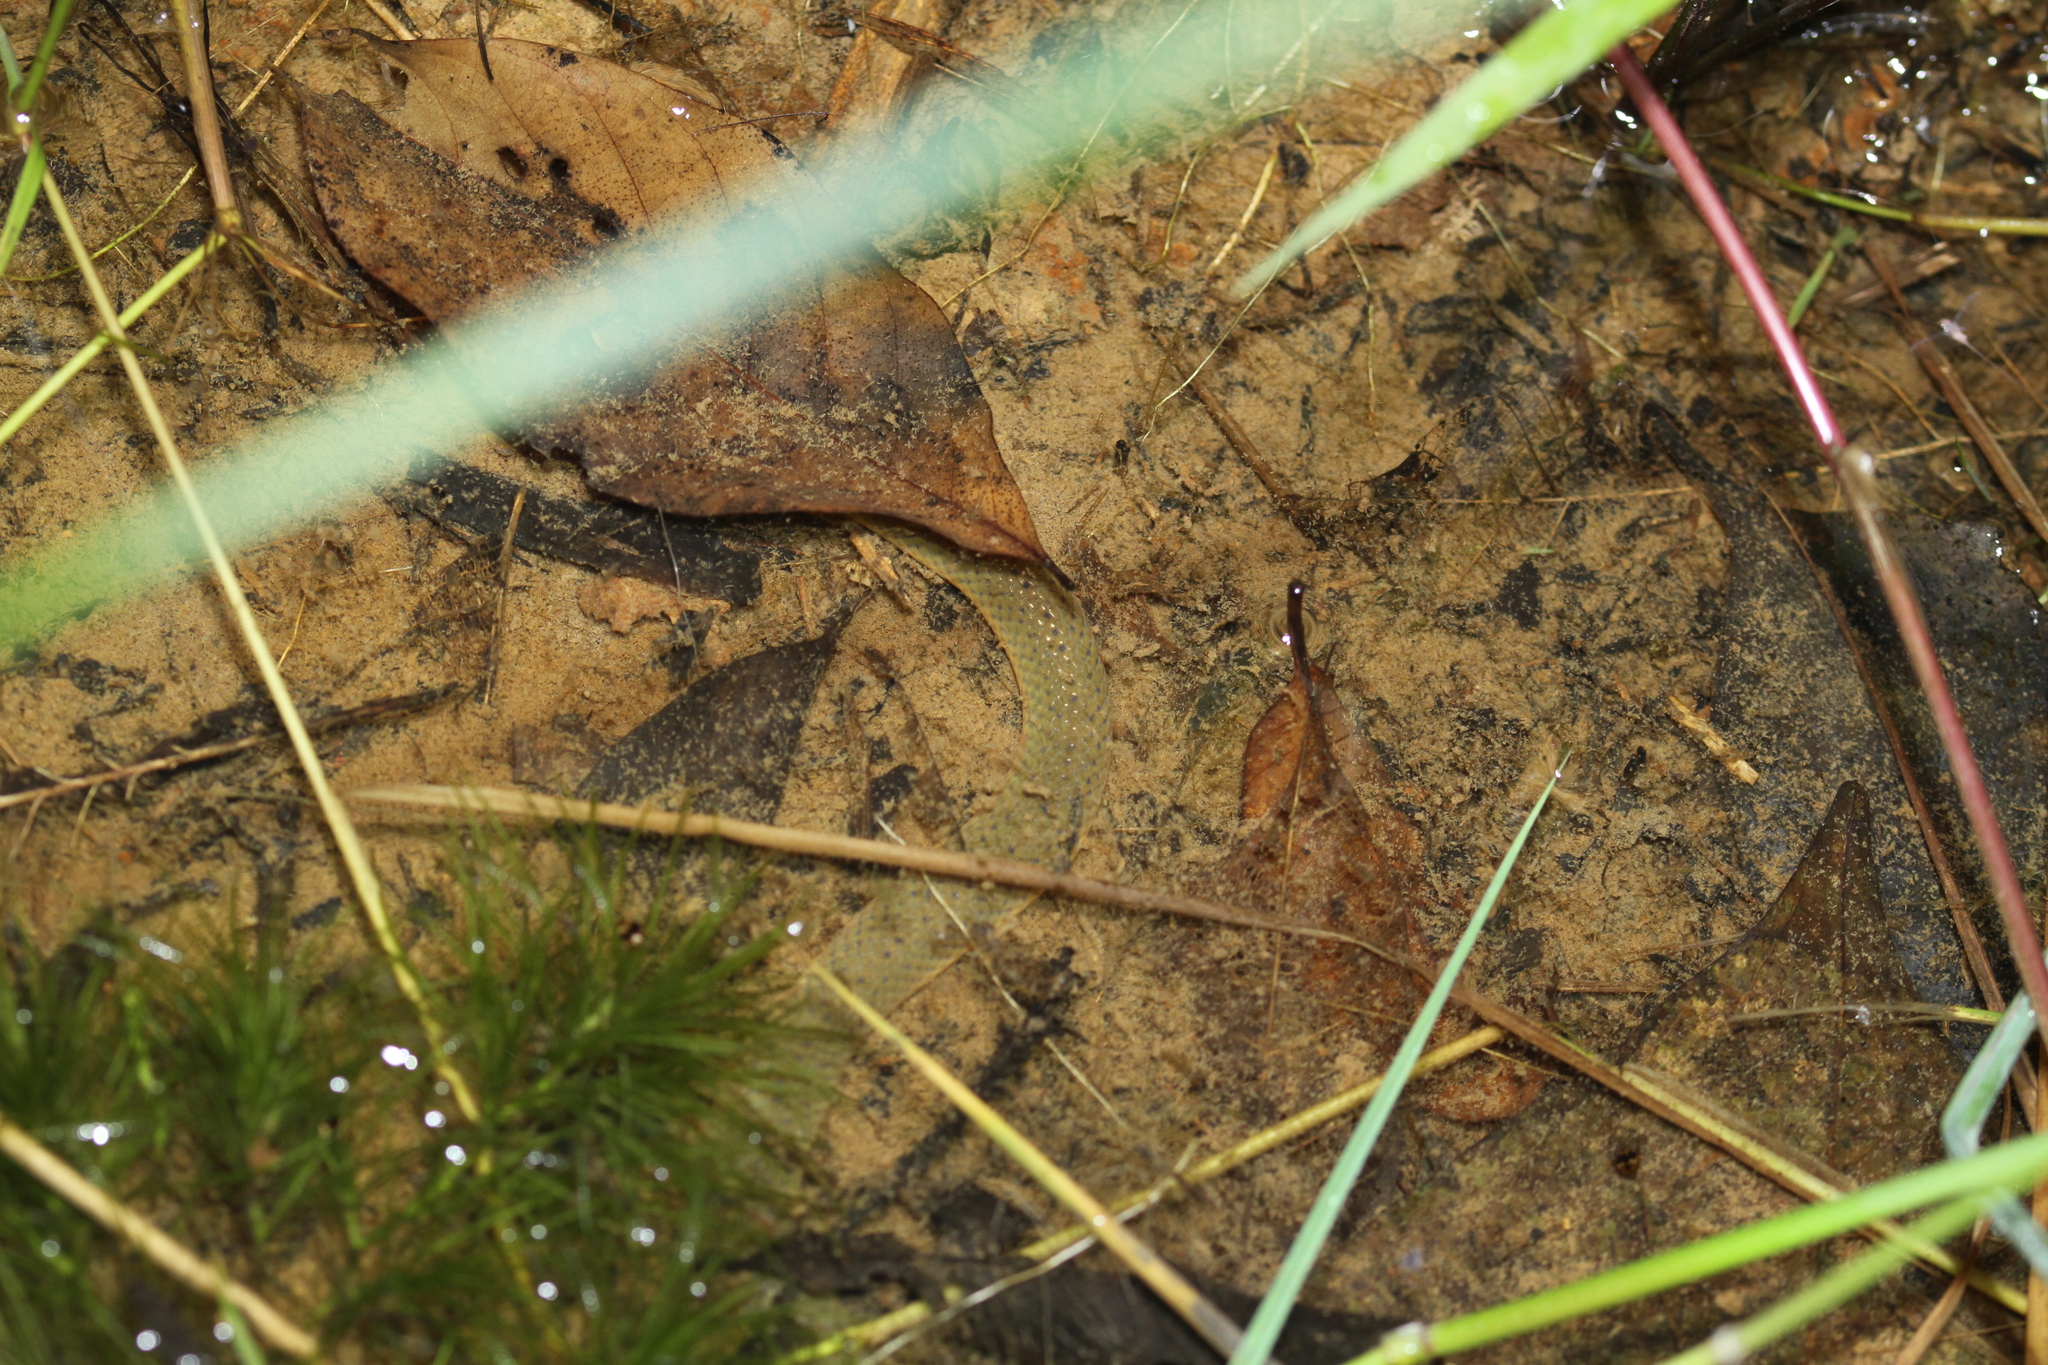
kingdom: Animalia
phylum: Chordata
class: Squamata
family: Homalopsidae
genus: Hypsiscopus
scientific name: Hypsiscopus plumbea
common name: Rice paddy snake
